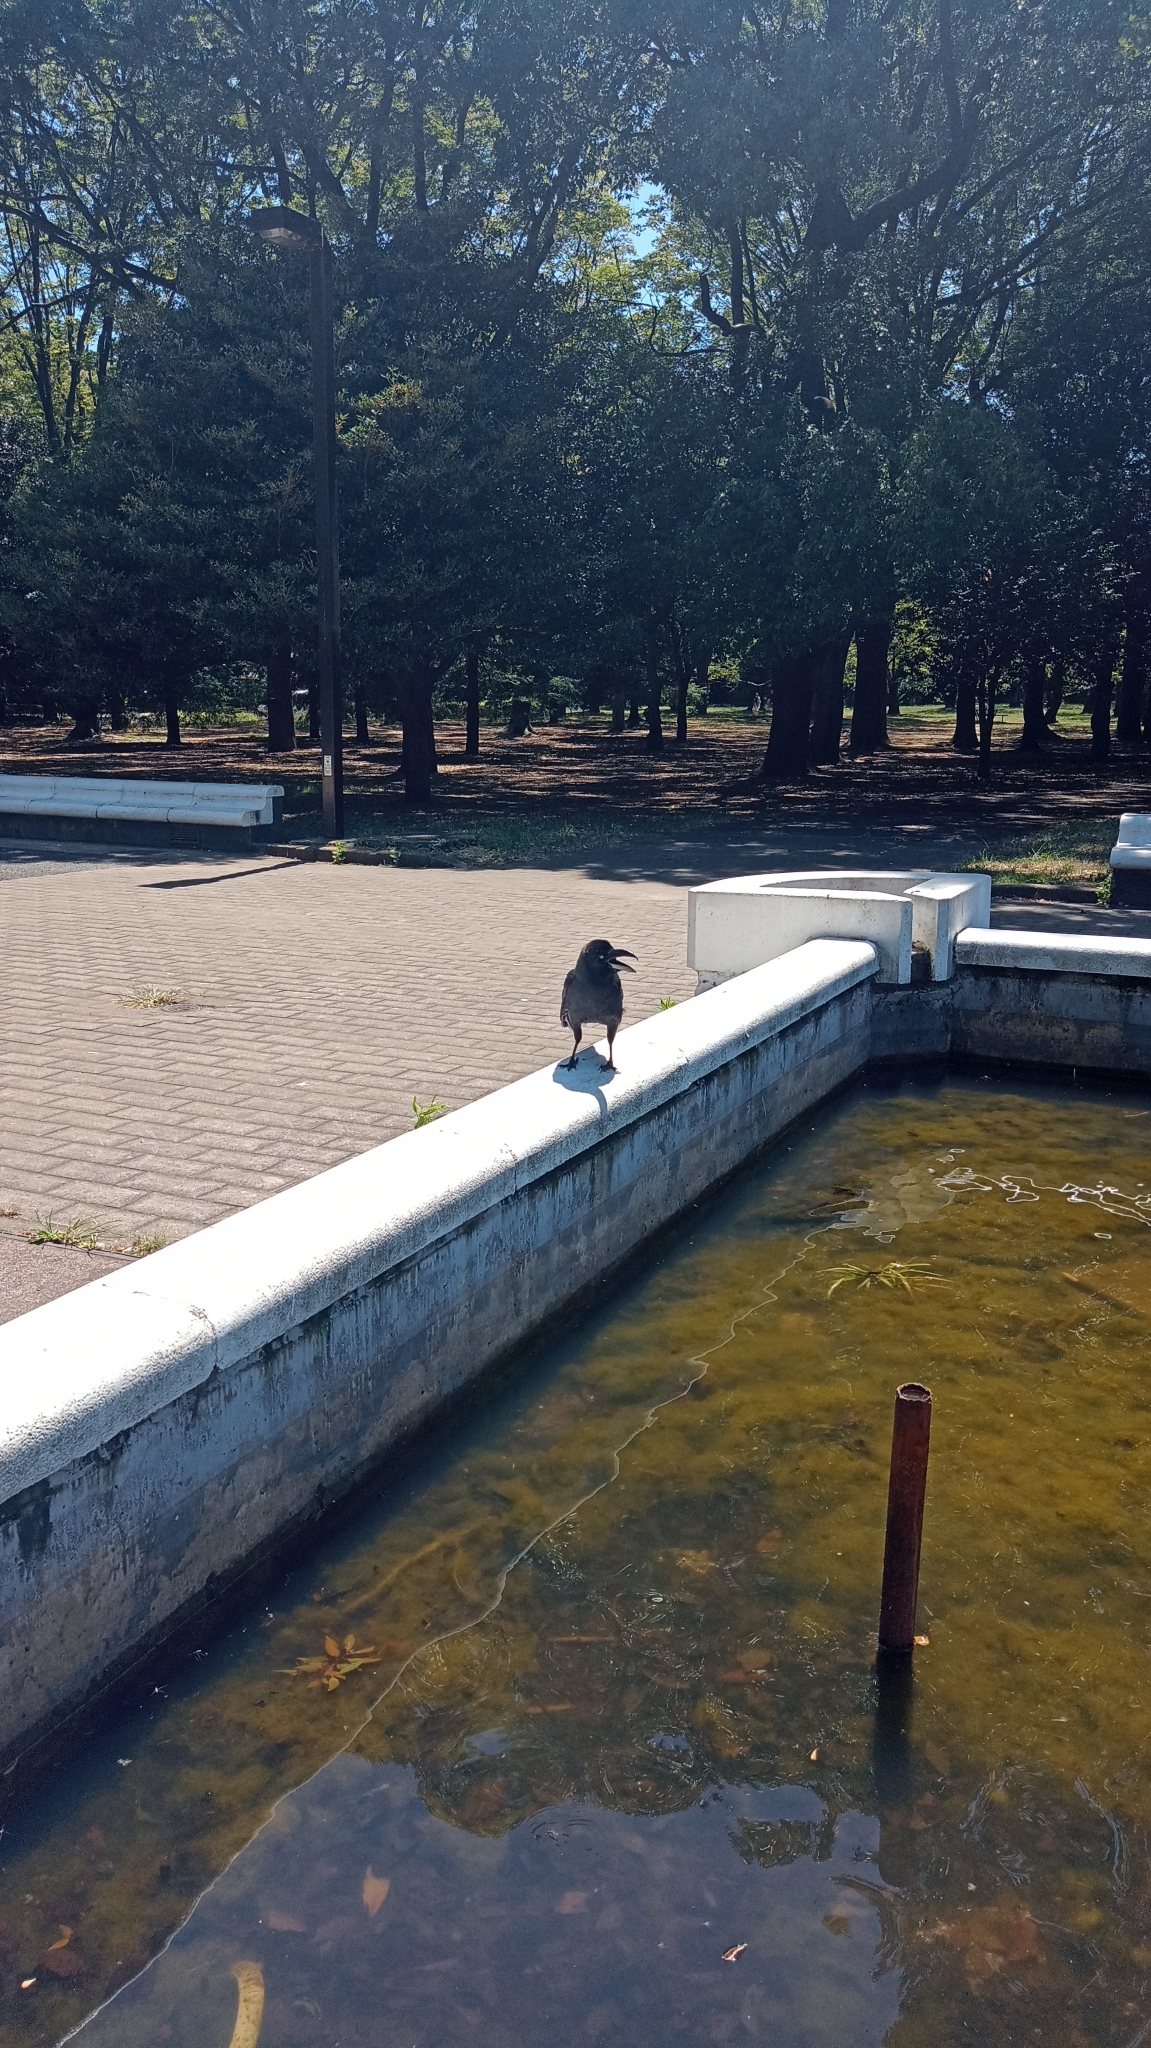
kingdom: Animalia
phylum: Chordata
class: Aves
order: Passeriformes
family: Corvidae
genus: Corvus
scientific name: Corvus macrorhynchos
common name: Large-billed crow
